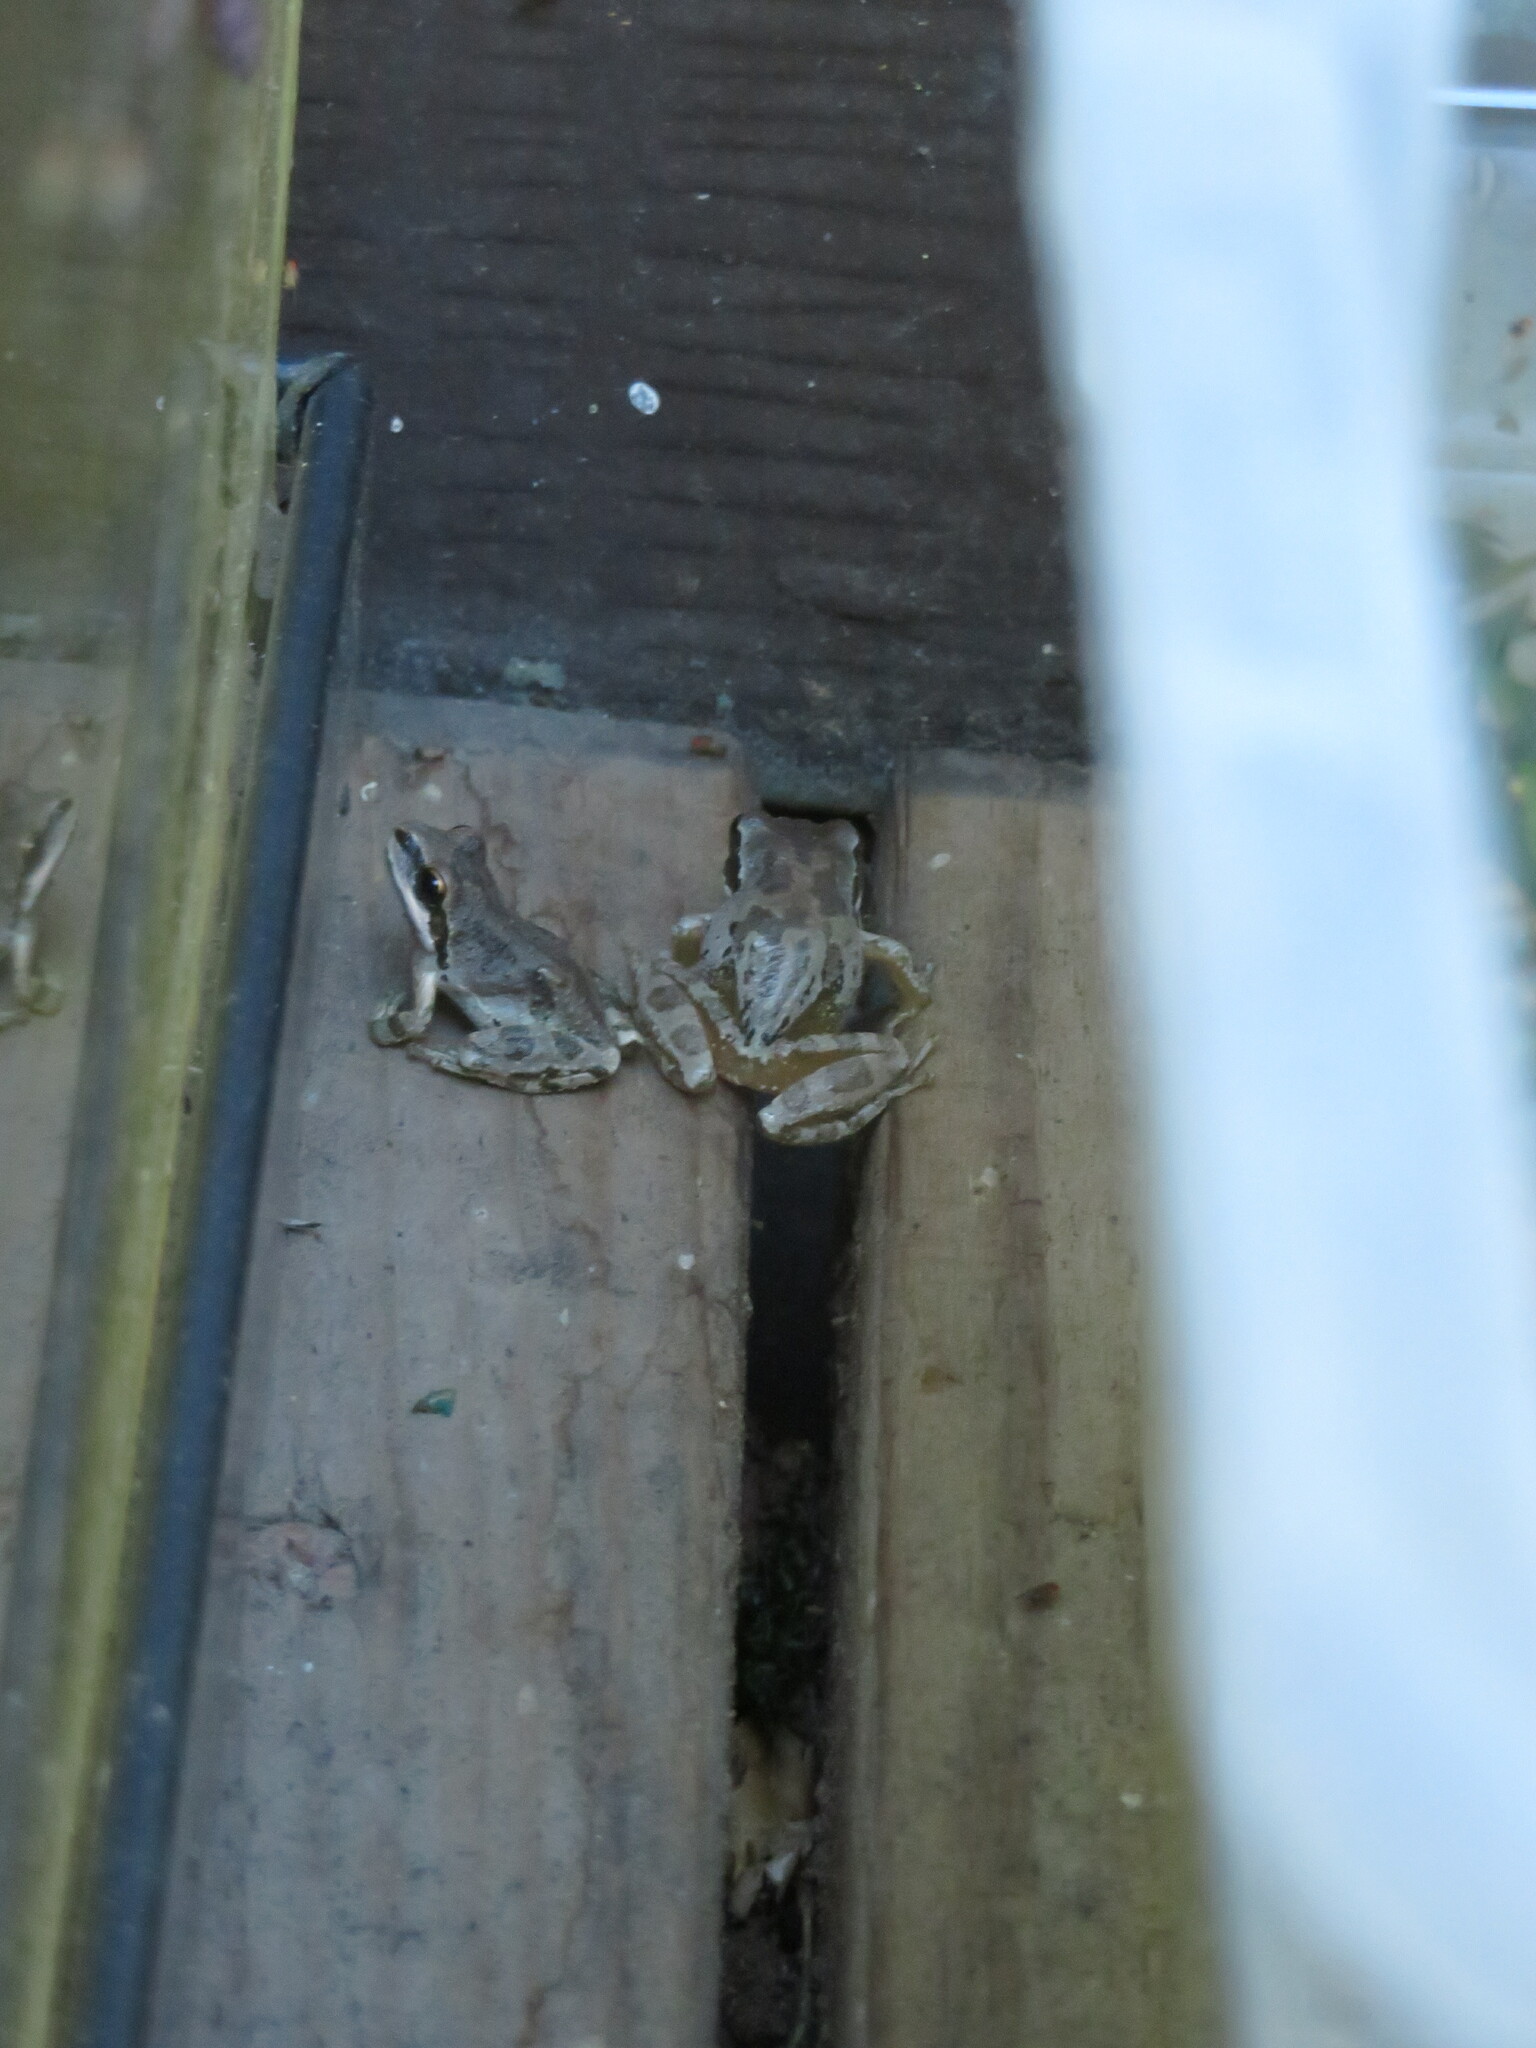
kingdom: Animalia
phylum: Chordata
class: Amphibia
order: Anura
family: Hylidae
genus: Pseudacris
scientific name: Pseudacris regilla
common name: Pacific chorus frog
